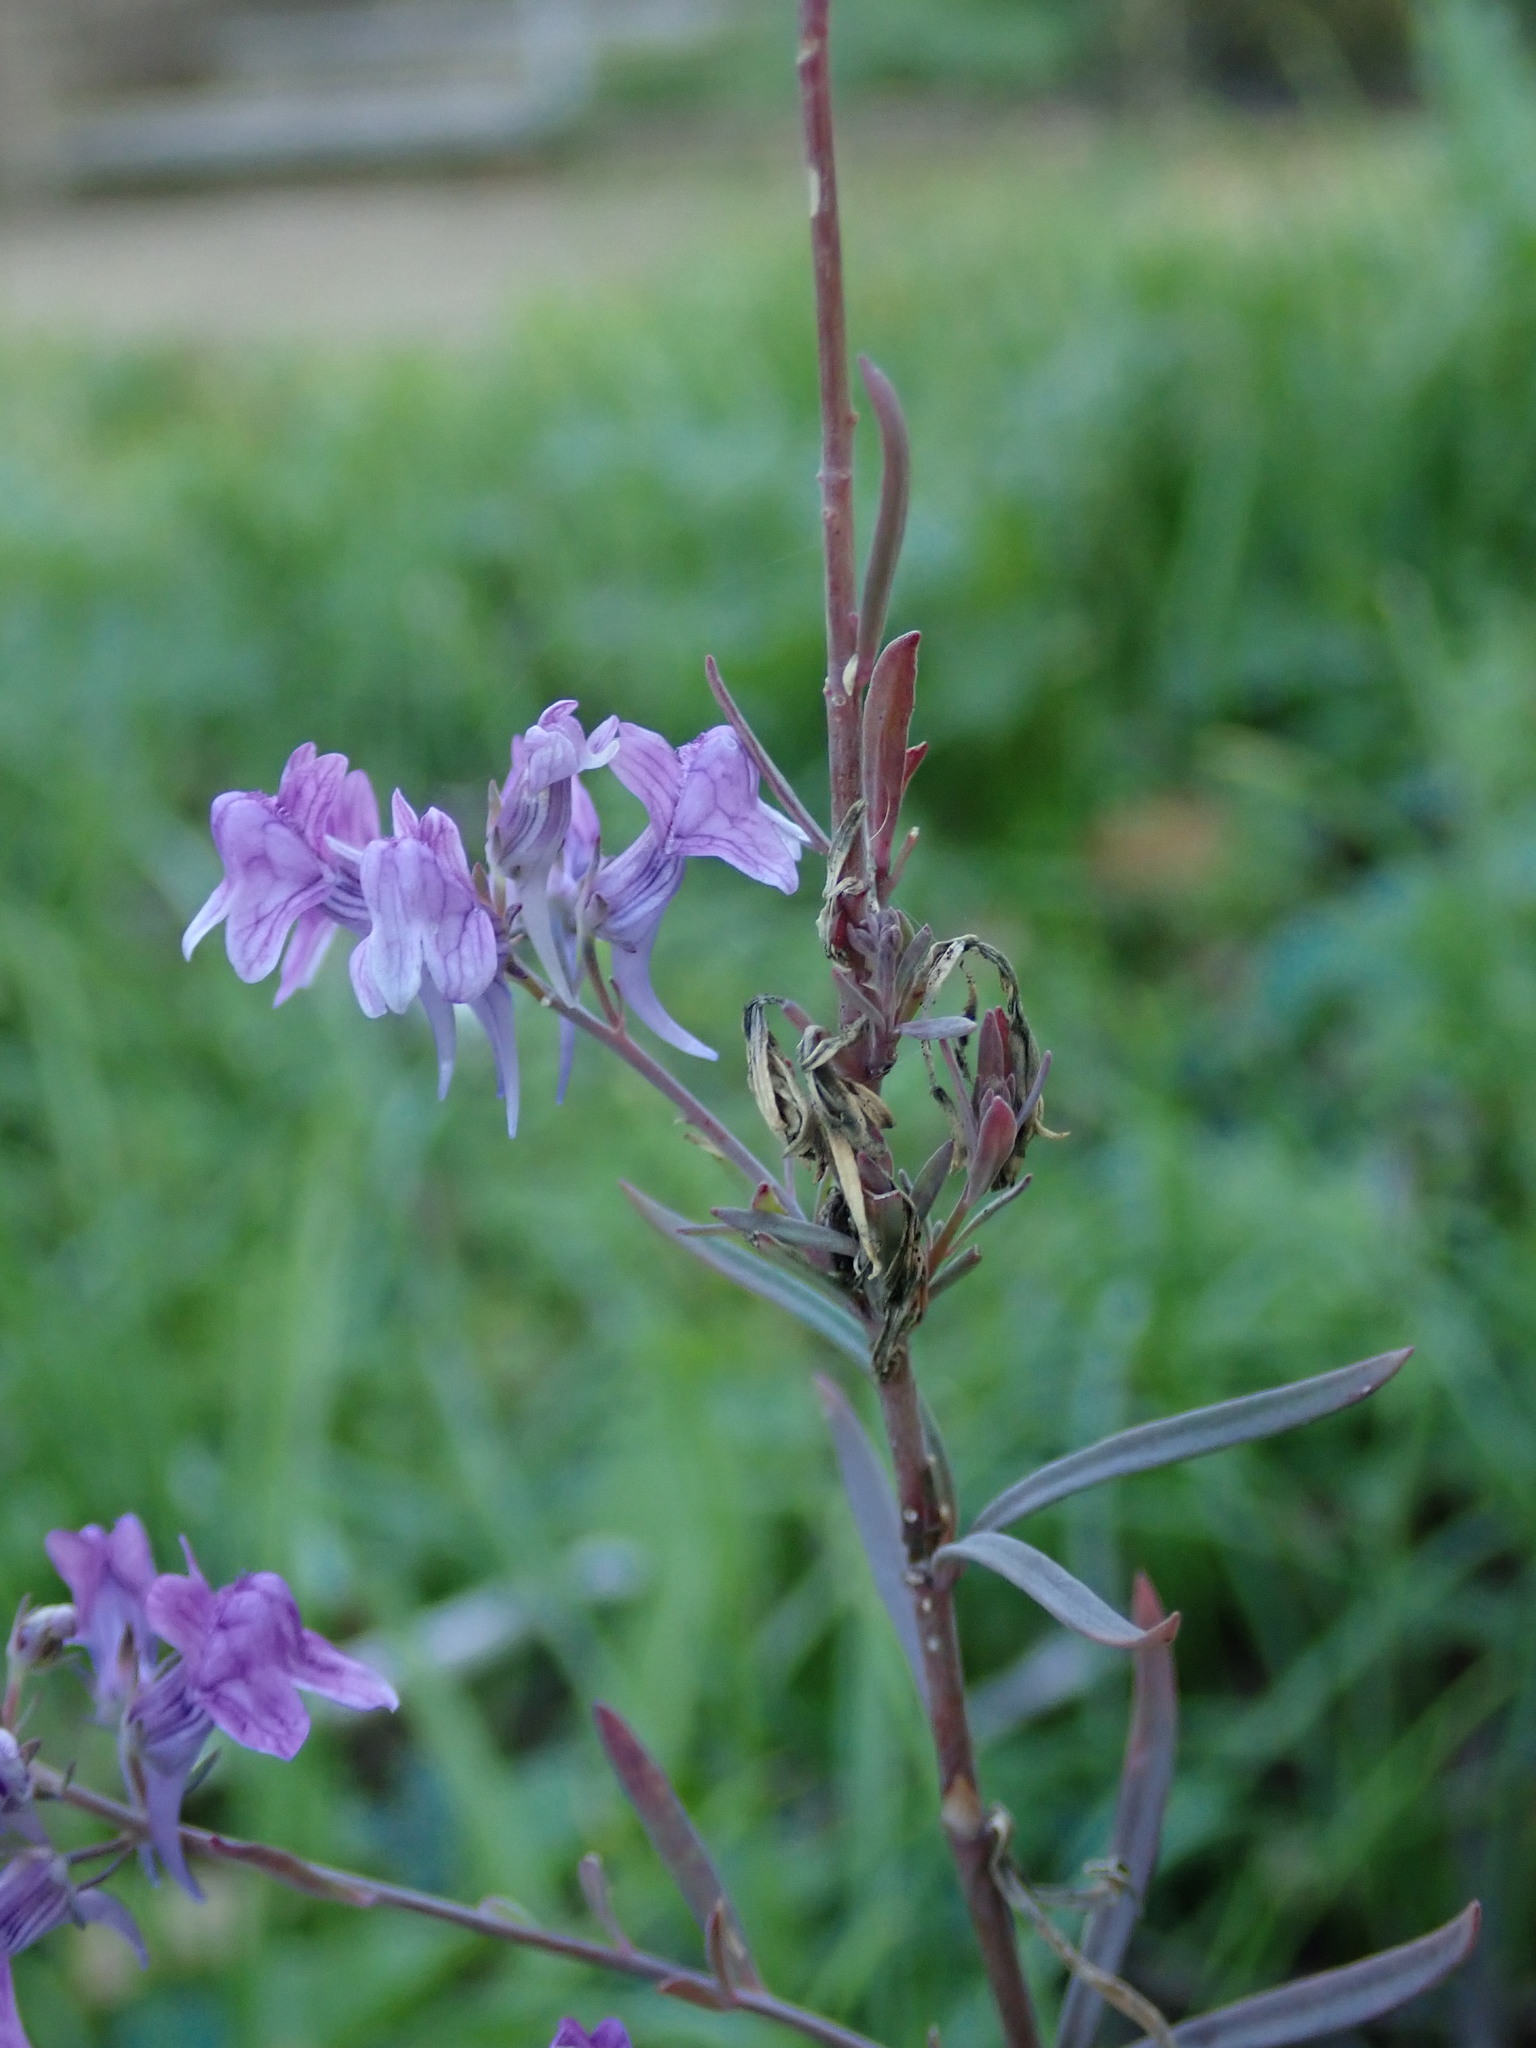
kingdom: Plantae
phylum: Tracheophyta
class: Magnoliopsida
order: Lamiales
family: Plantaginaceae
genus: Linaria
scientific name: Linaria purpurea
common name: Purple toadflax
